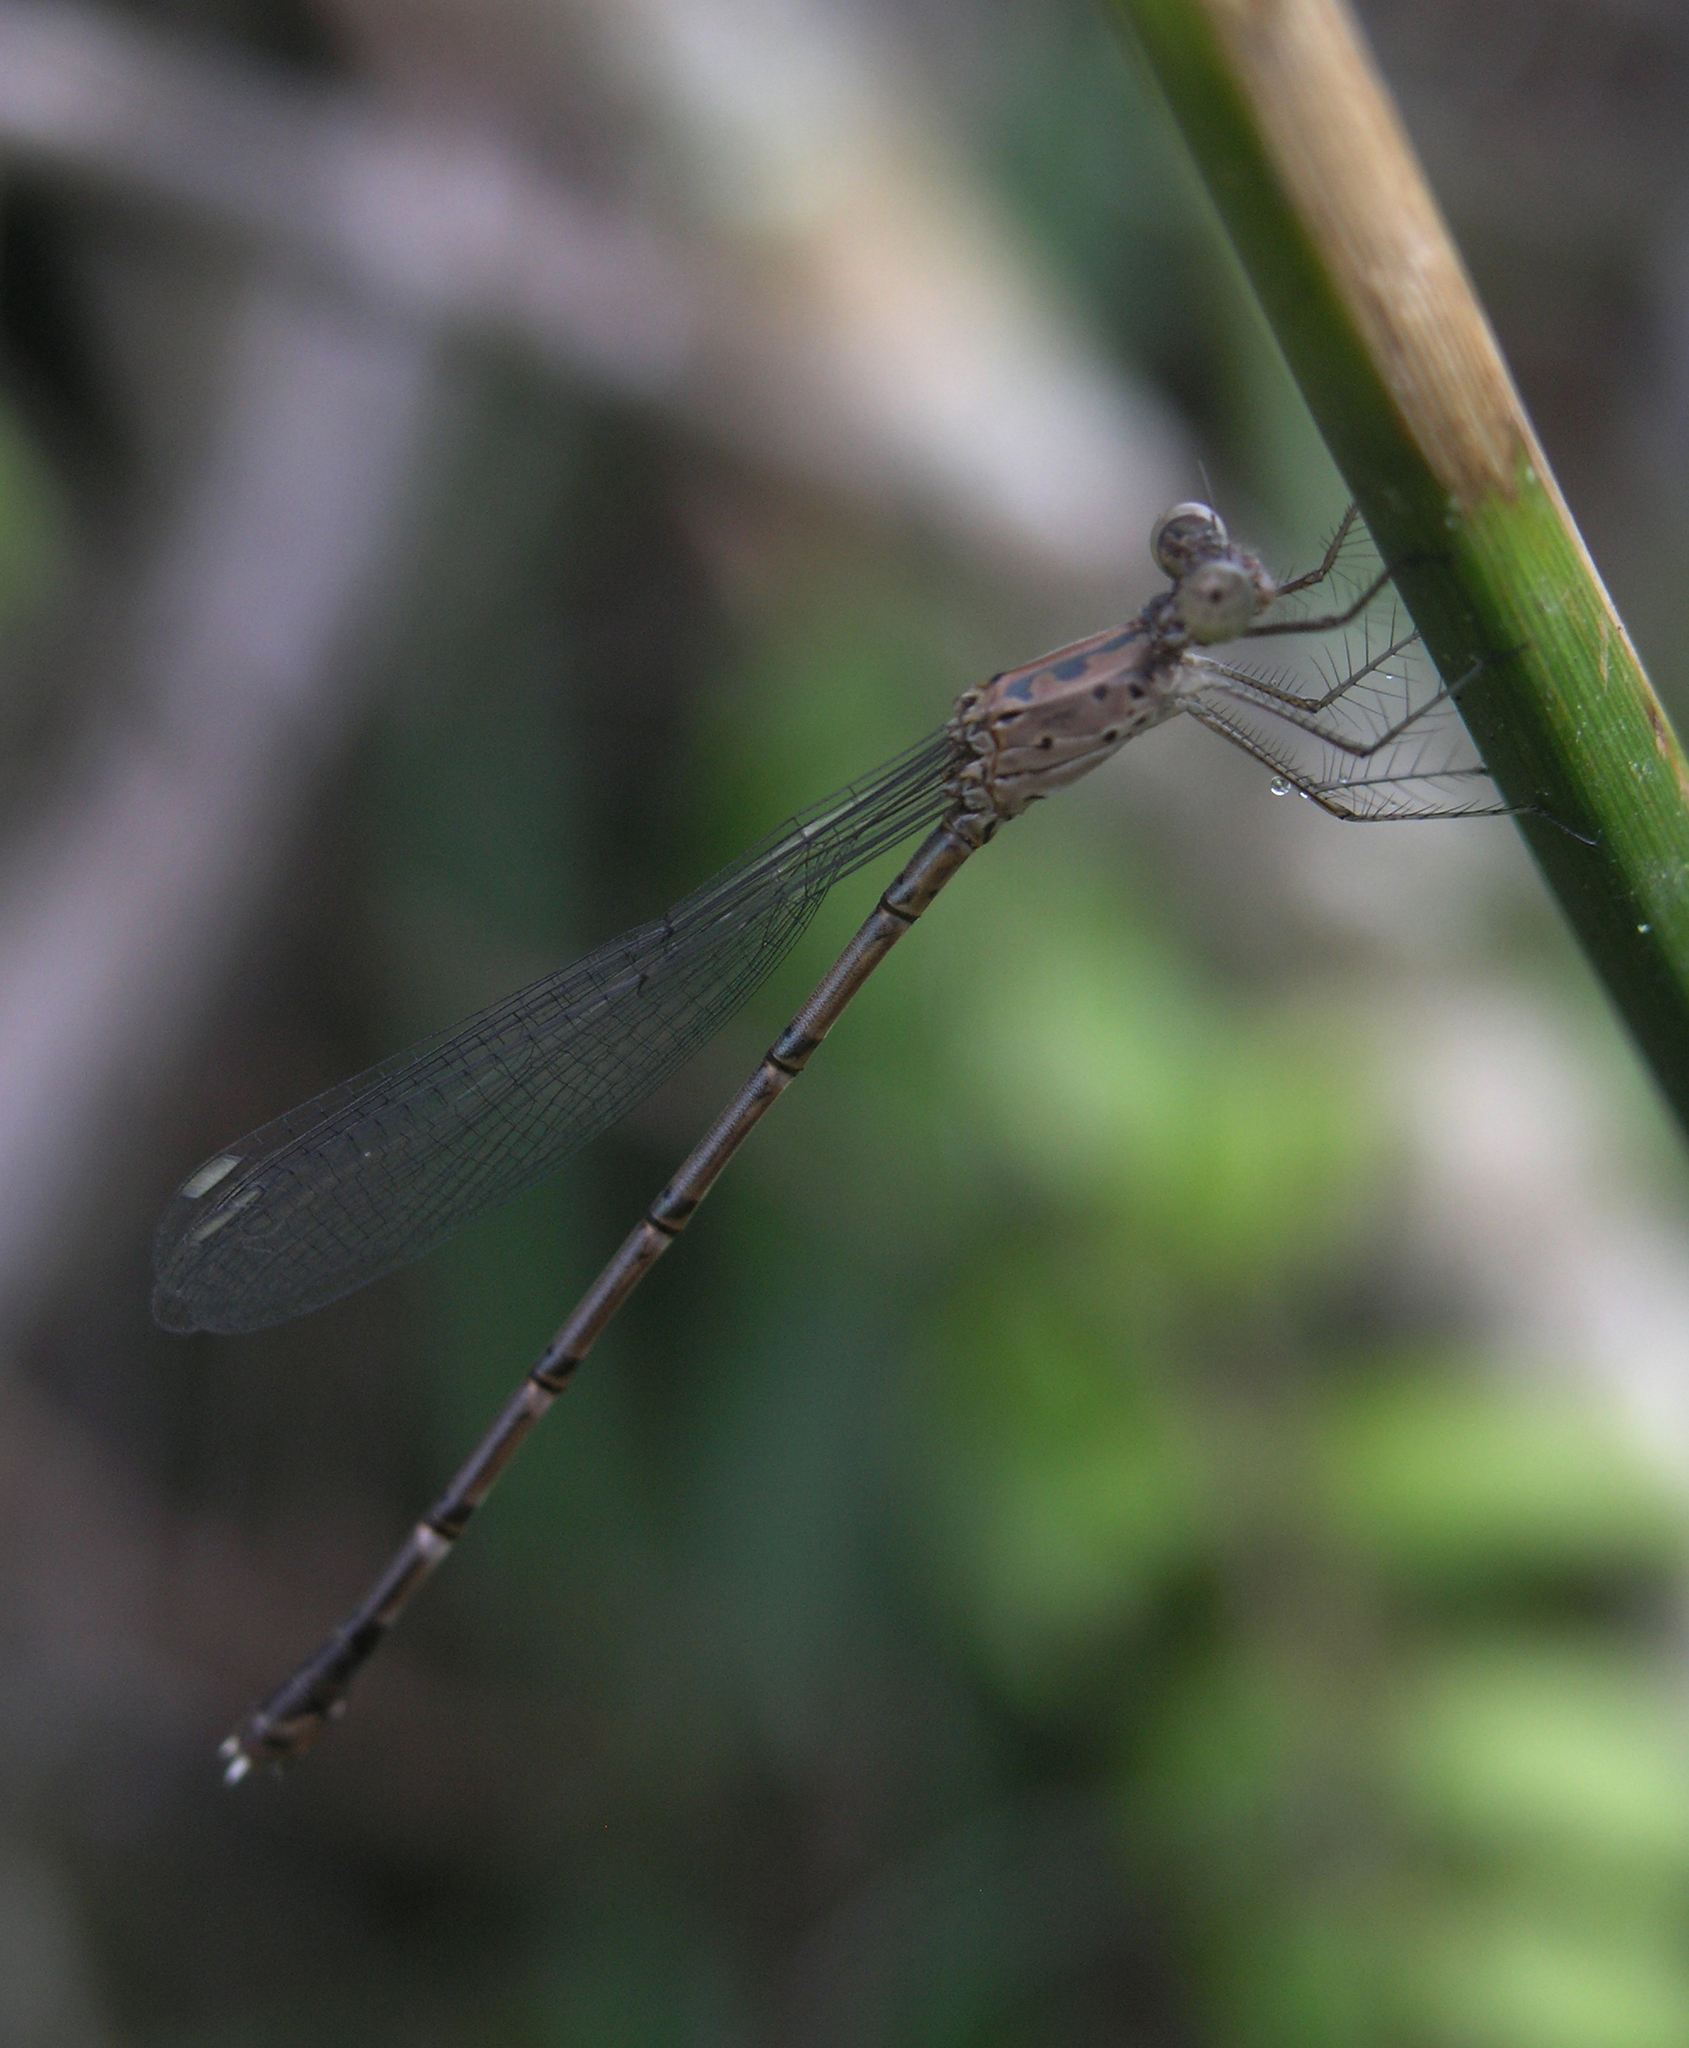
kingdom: Animalia
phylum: Arthropoda
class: Insecta
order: Odonata
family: Lestidae
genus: Lestes
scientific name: Lestes praemorsus
